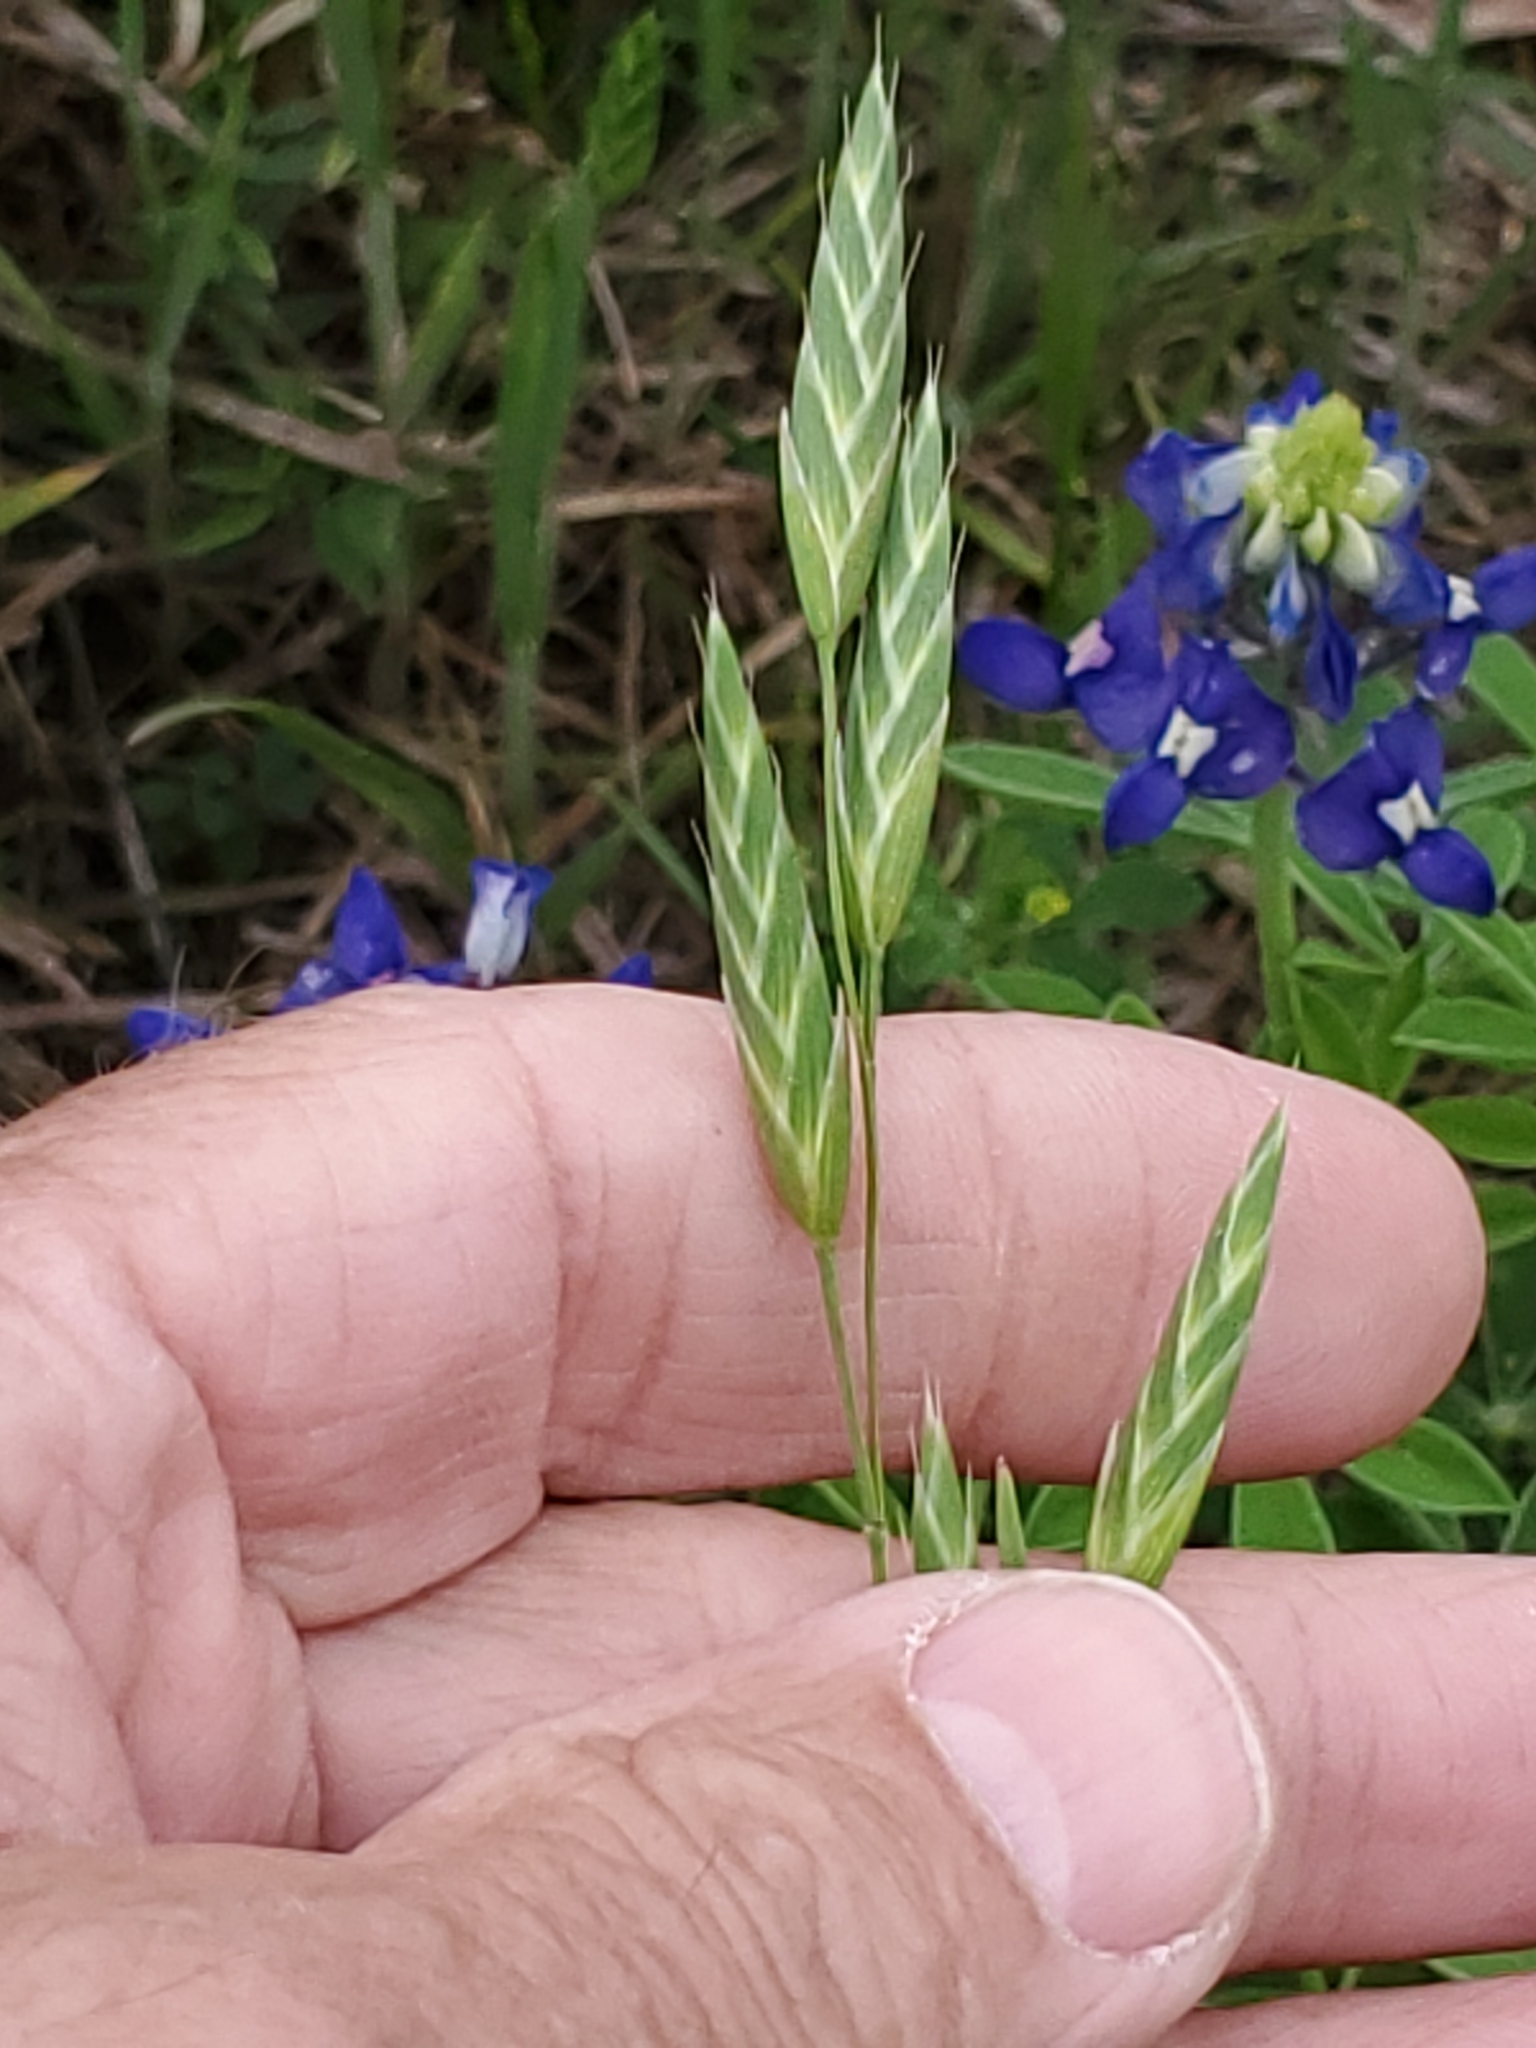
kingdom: Plantae
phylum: Tracheophyta
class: Liliopsida
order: Poales
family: Poaceae
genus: Bromus
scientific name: Bromus catharticus
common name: Rescuegrass
